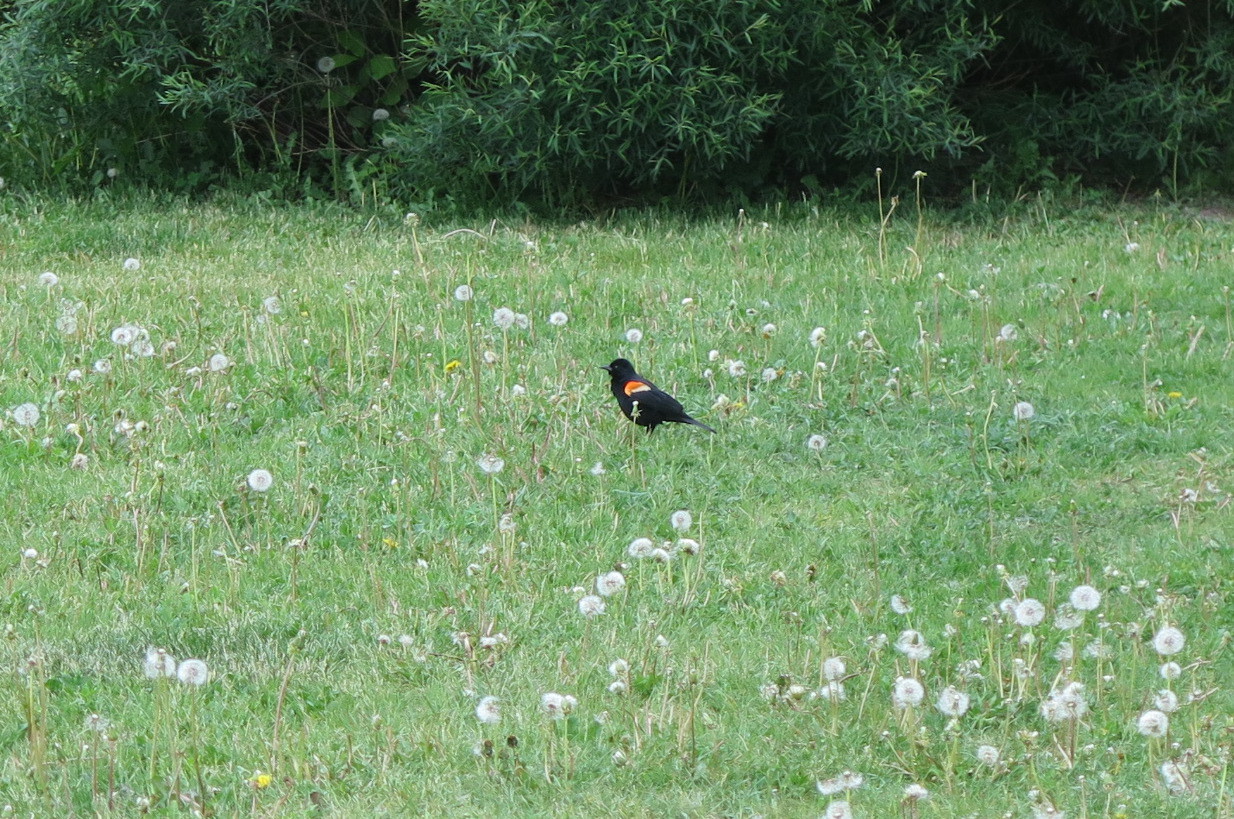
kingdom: Animalia
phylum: Chordata
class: Aves
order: Passeriformes
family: Icteridae
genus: Agelaius
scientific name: Agelaius phoeniceus
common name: Red-winged blackbird
